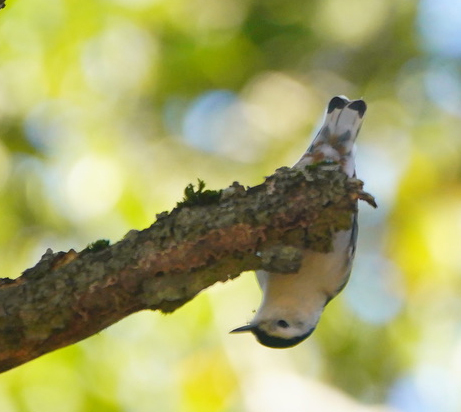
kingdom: Animalia
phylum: Chordata
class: Aves
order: Passeriformes
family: Sittidae
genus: Sitta
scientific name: Sitta carolinensis
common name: White-breasted nuthatch
